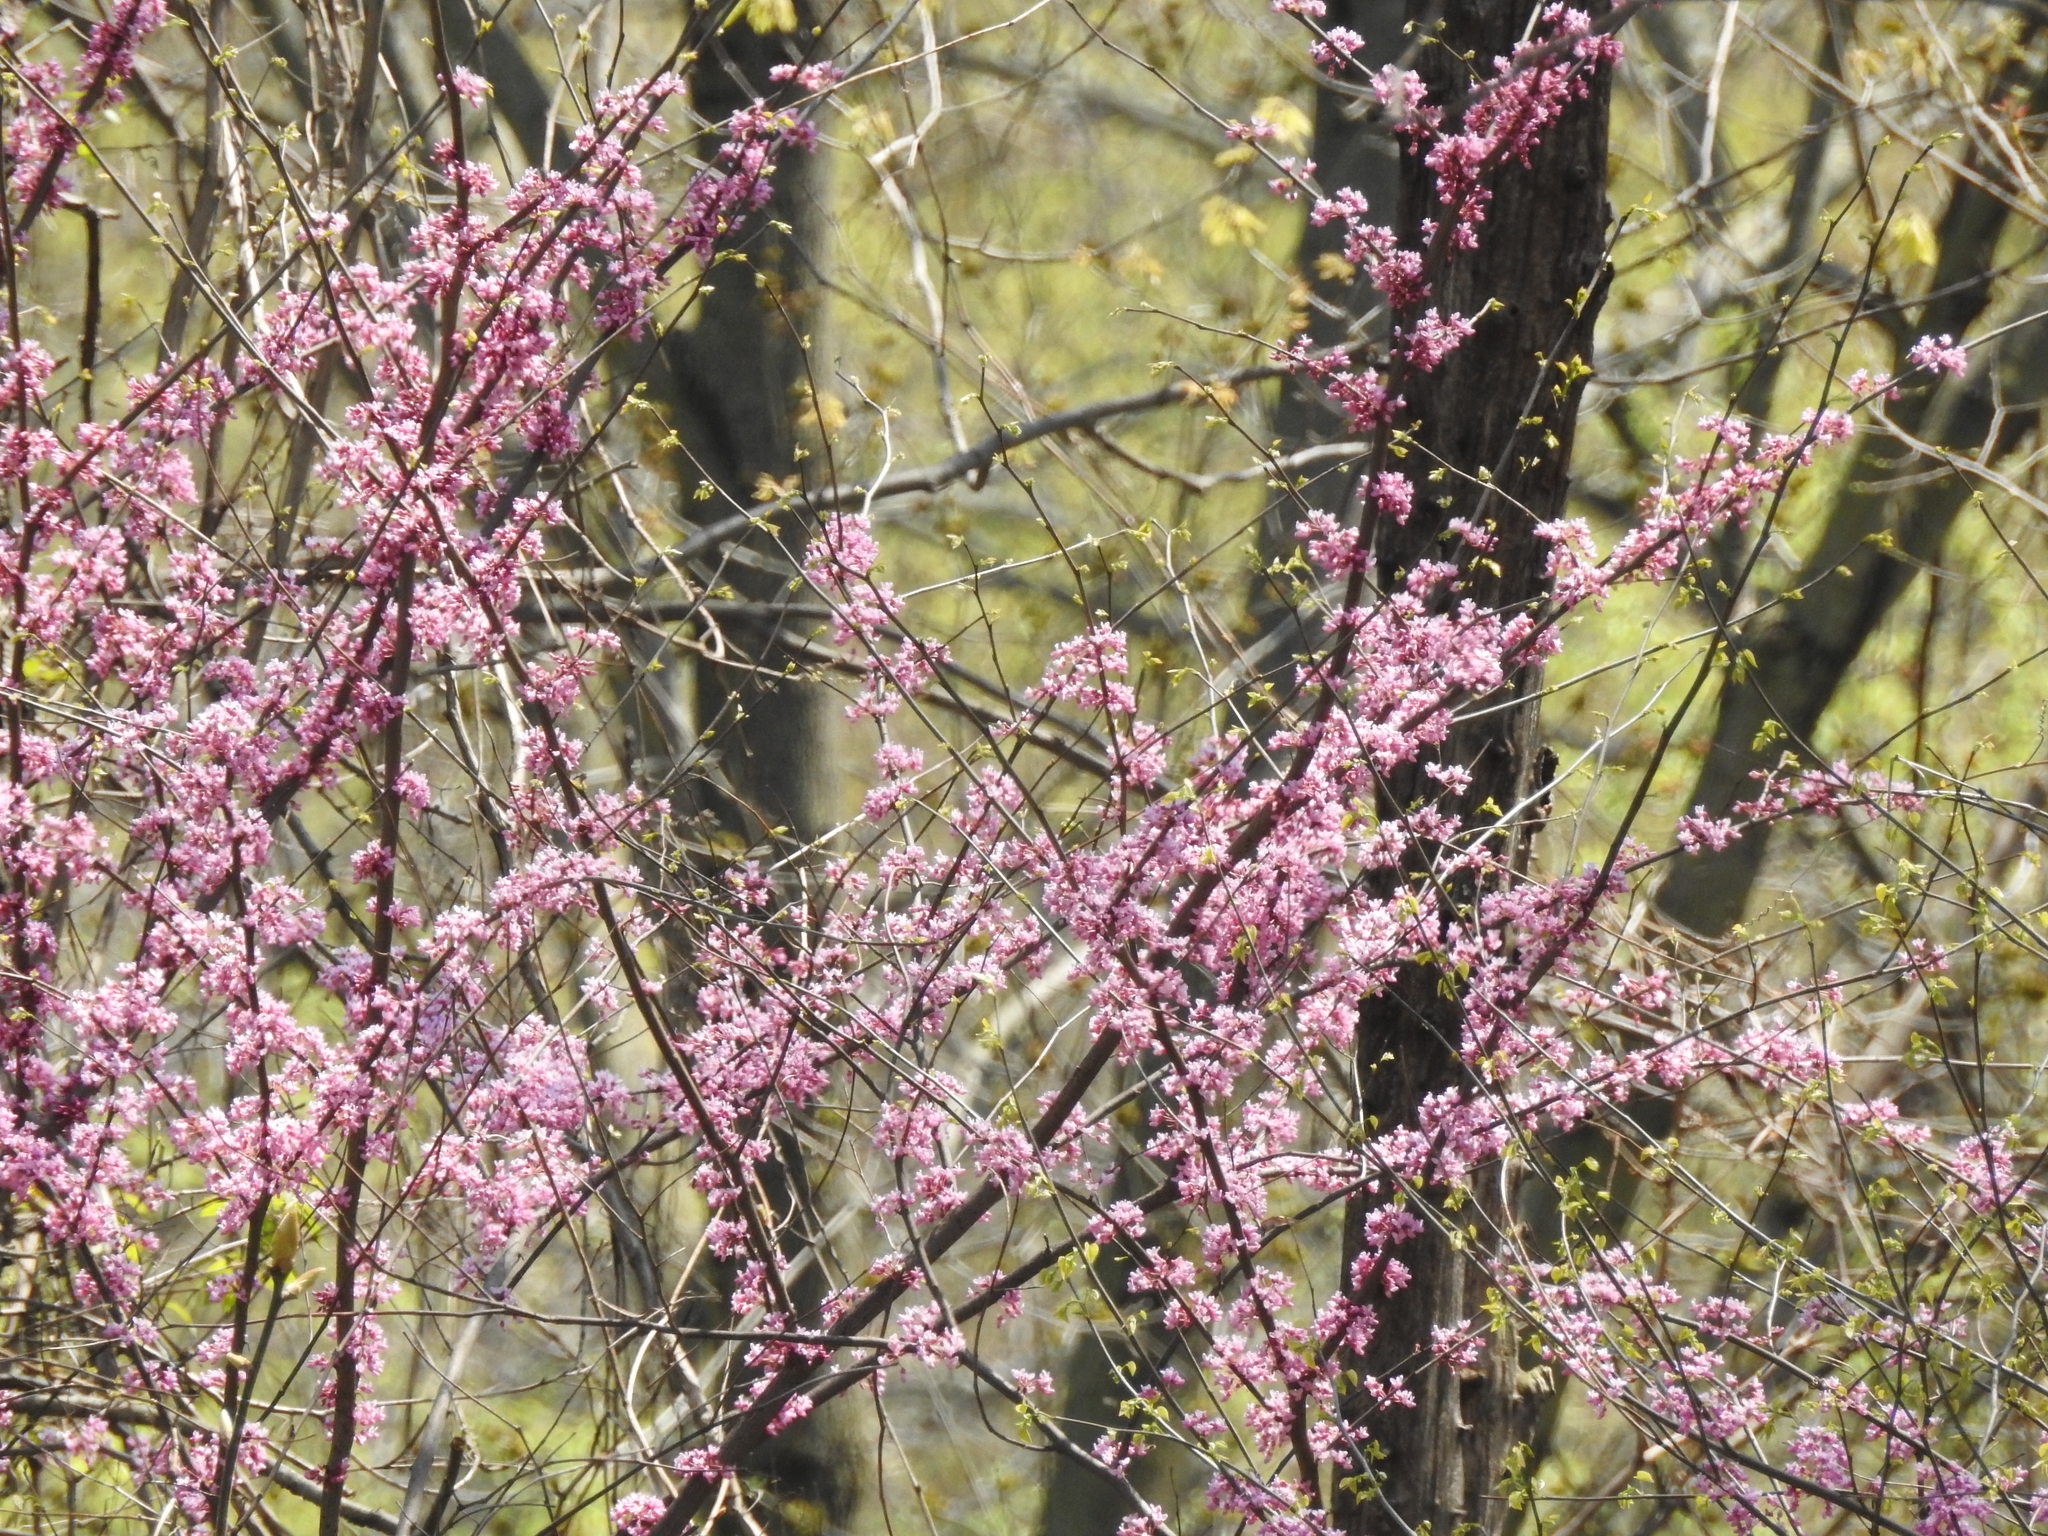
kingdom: Plantae
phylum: Tracheophyta
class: Magnoliopsida
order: Fabales
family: Fabaceae
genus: Cercis
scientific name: Cercis canadensis
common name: Eastern redbud
